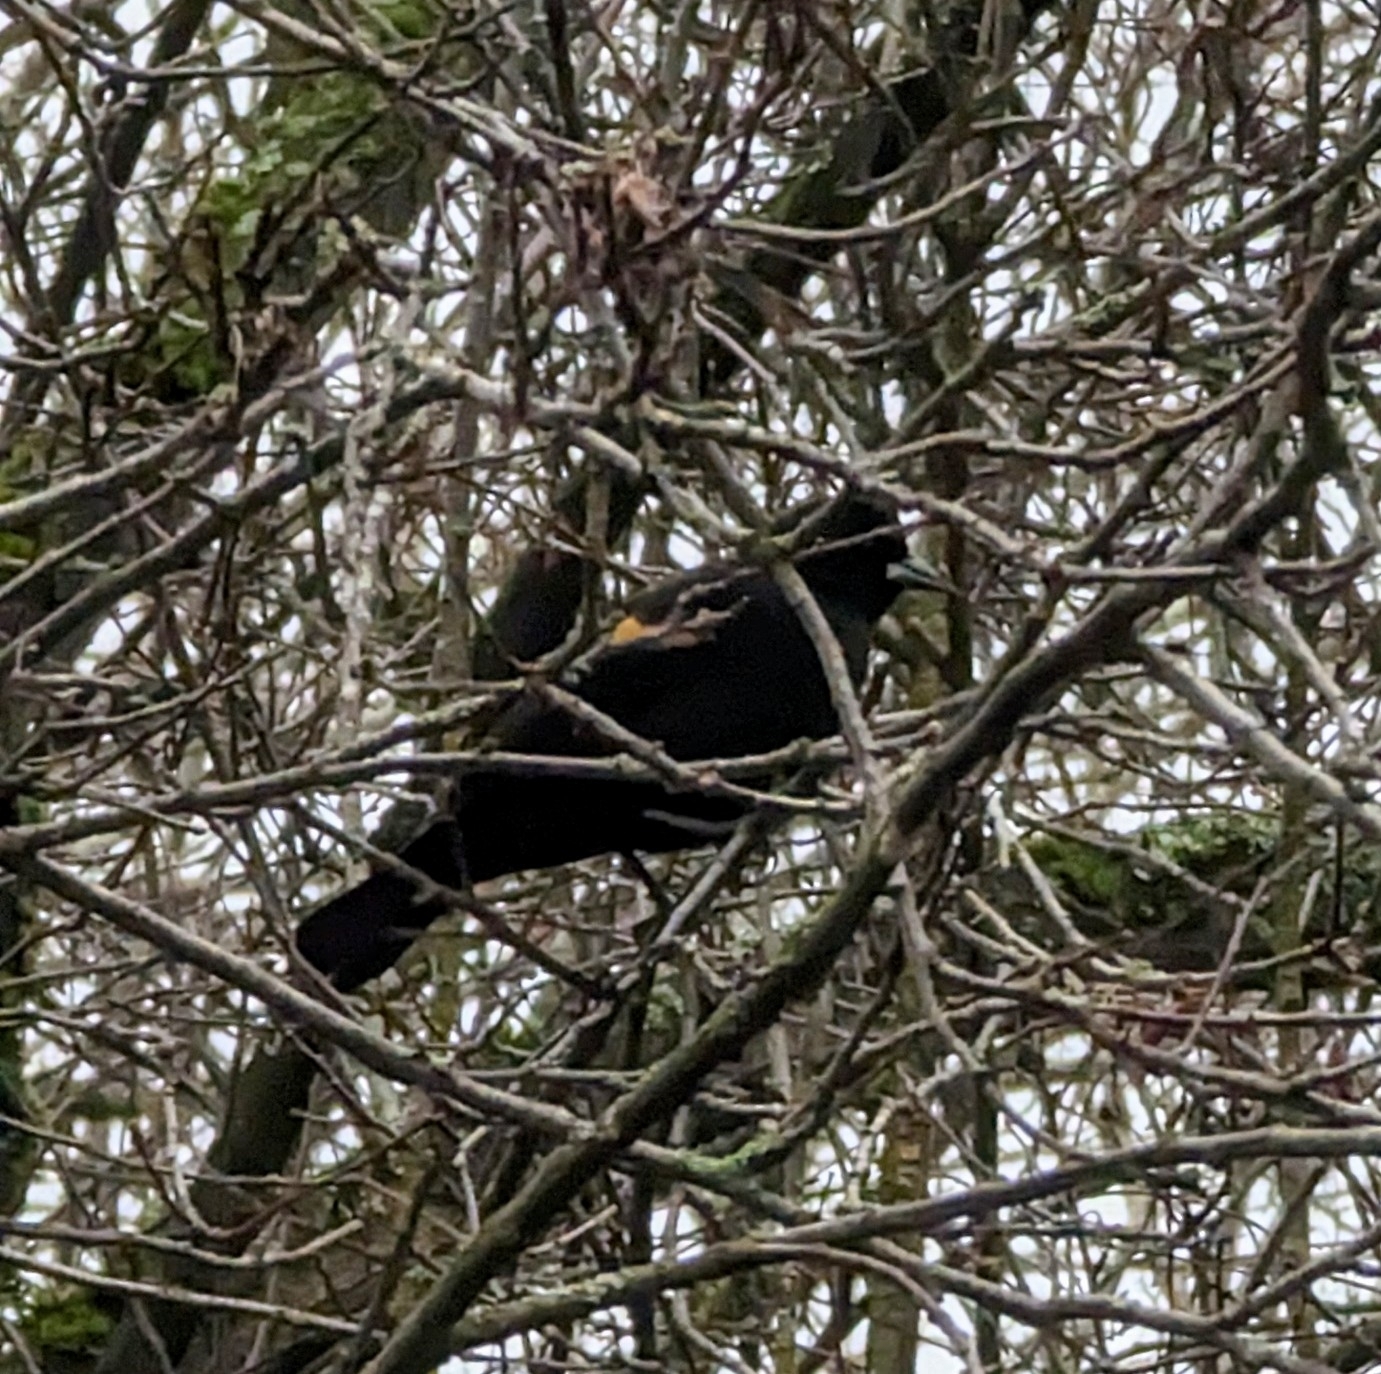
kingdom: Animalia
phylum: Chordata
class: Aves
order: Passeriformes
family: Icteridae
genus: Agelaius
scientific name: Agelaius phoeniceus
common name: Red-winged blackbird
